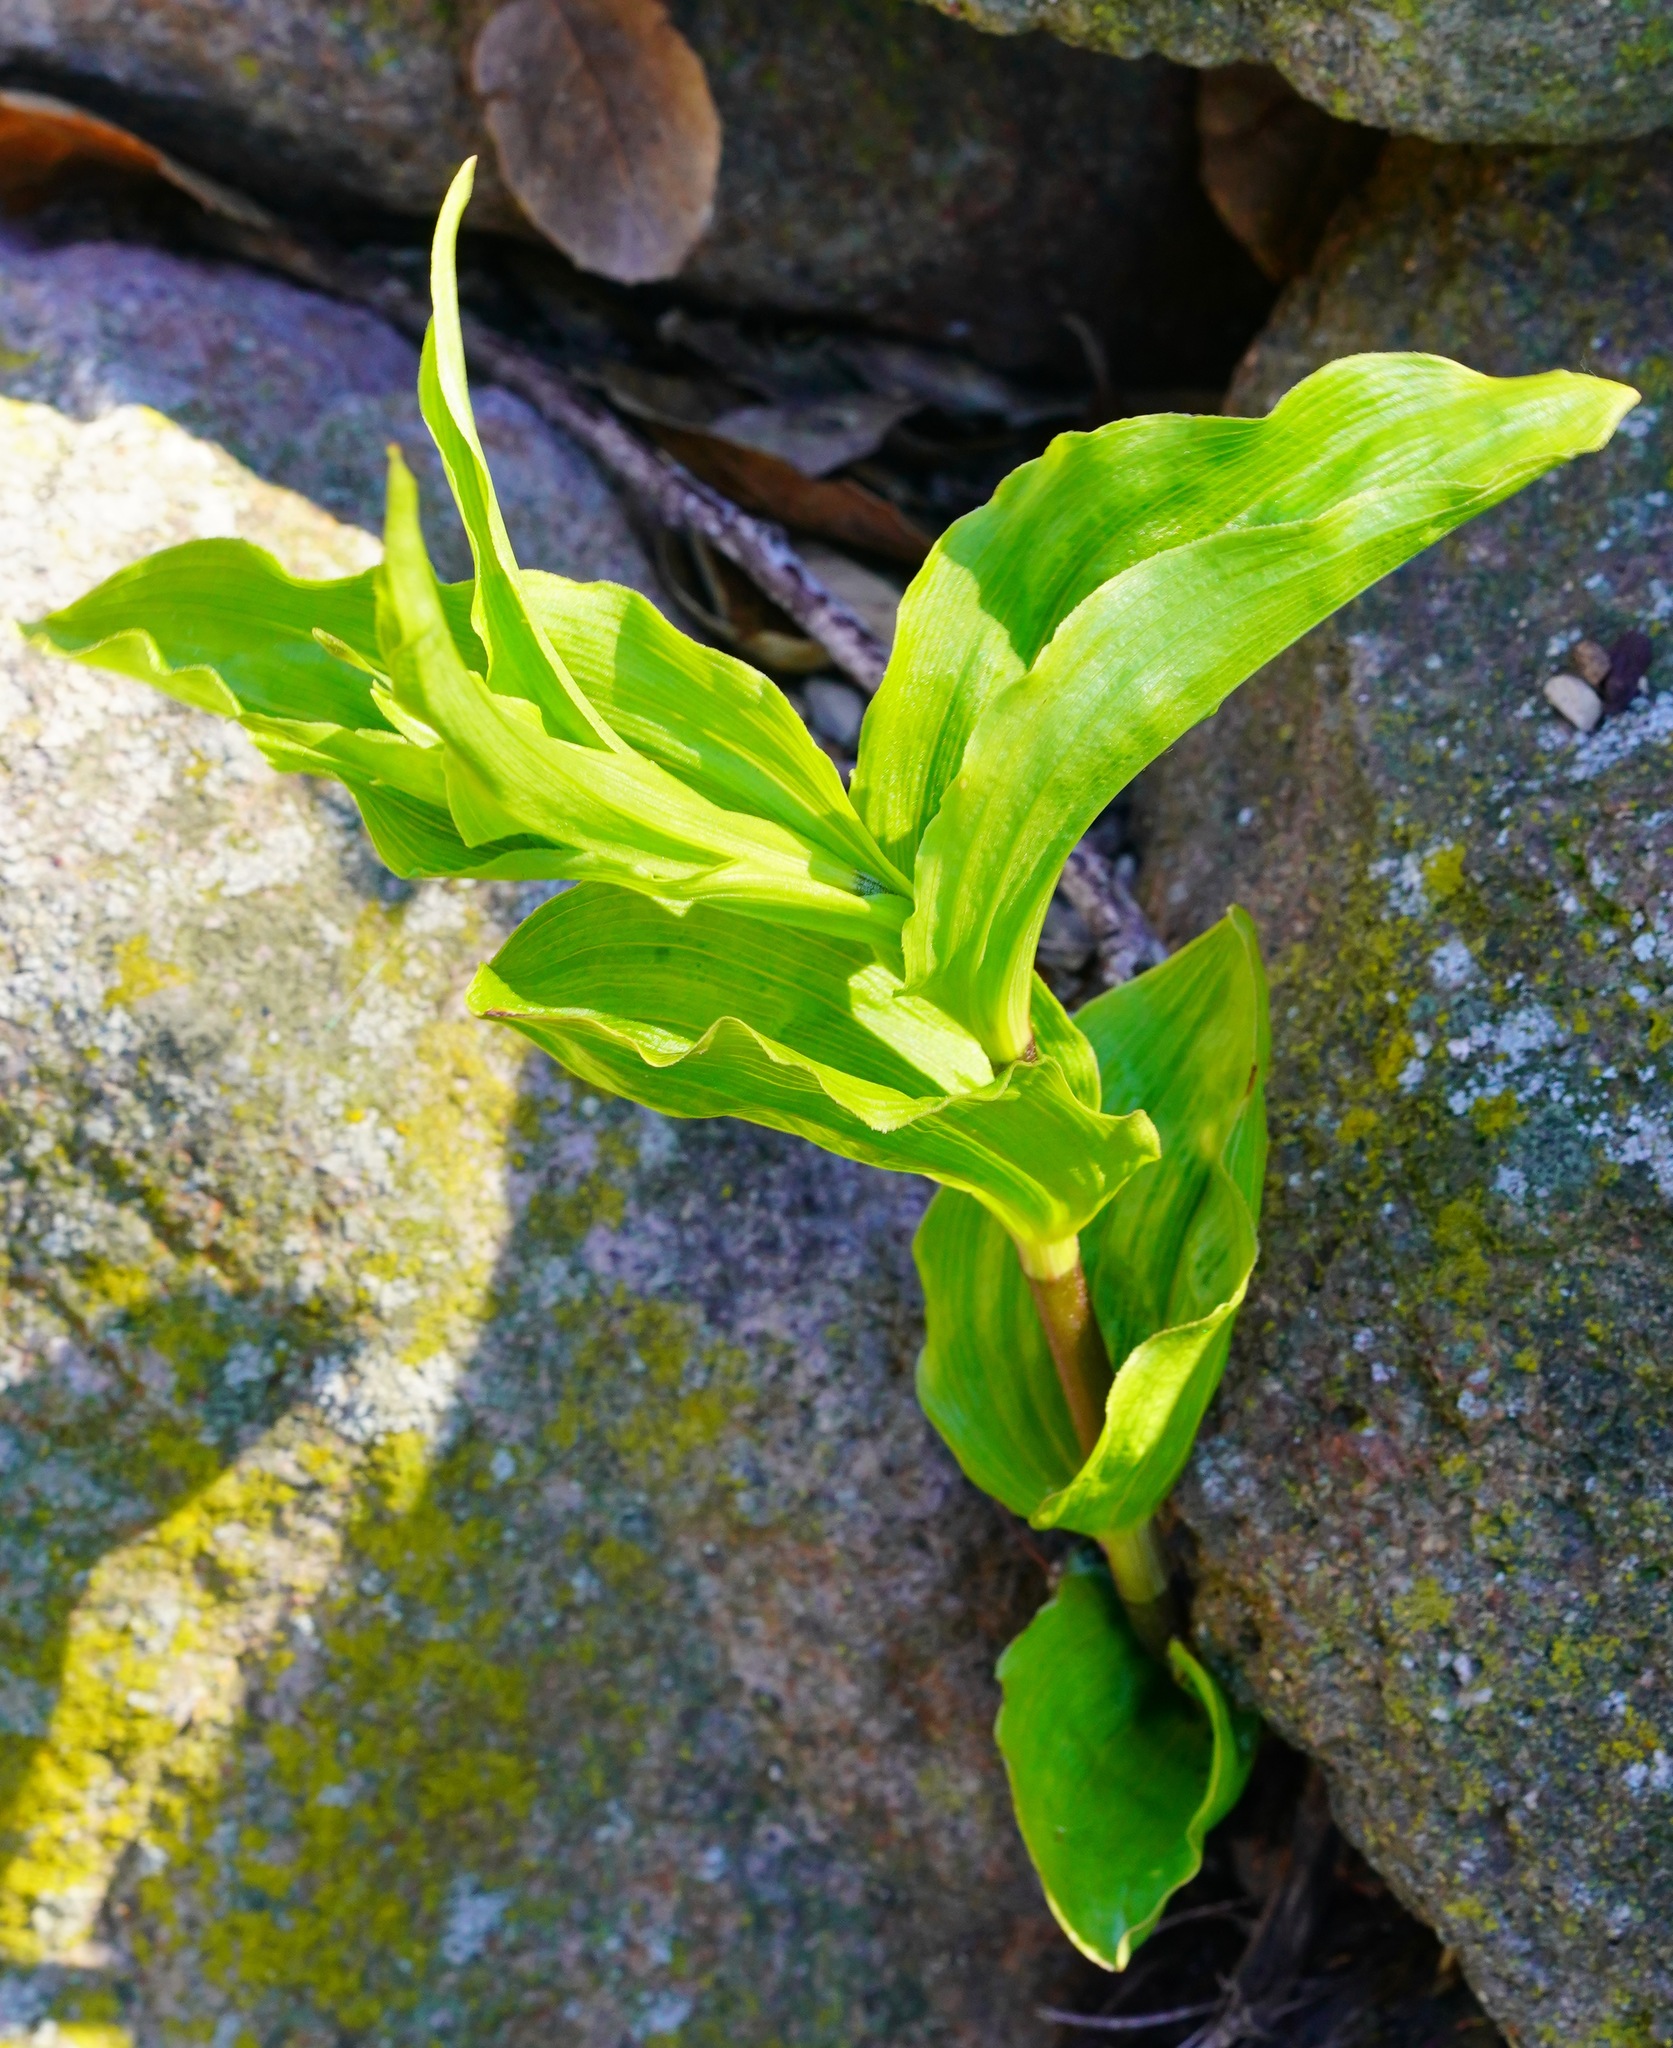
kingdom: Plantae
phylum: Tracheophyta
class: Liliopsida
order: Asparagales
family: Orchidaceae
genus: Epipactis
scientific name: Epipactis helleborine
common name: Broad-leaved helleborine
